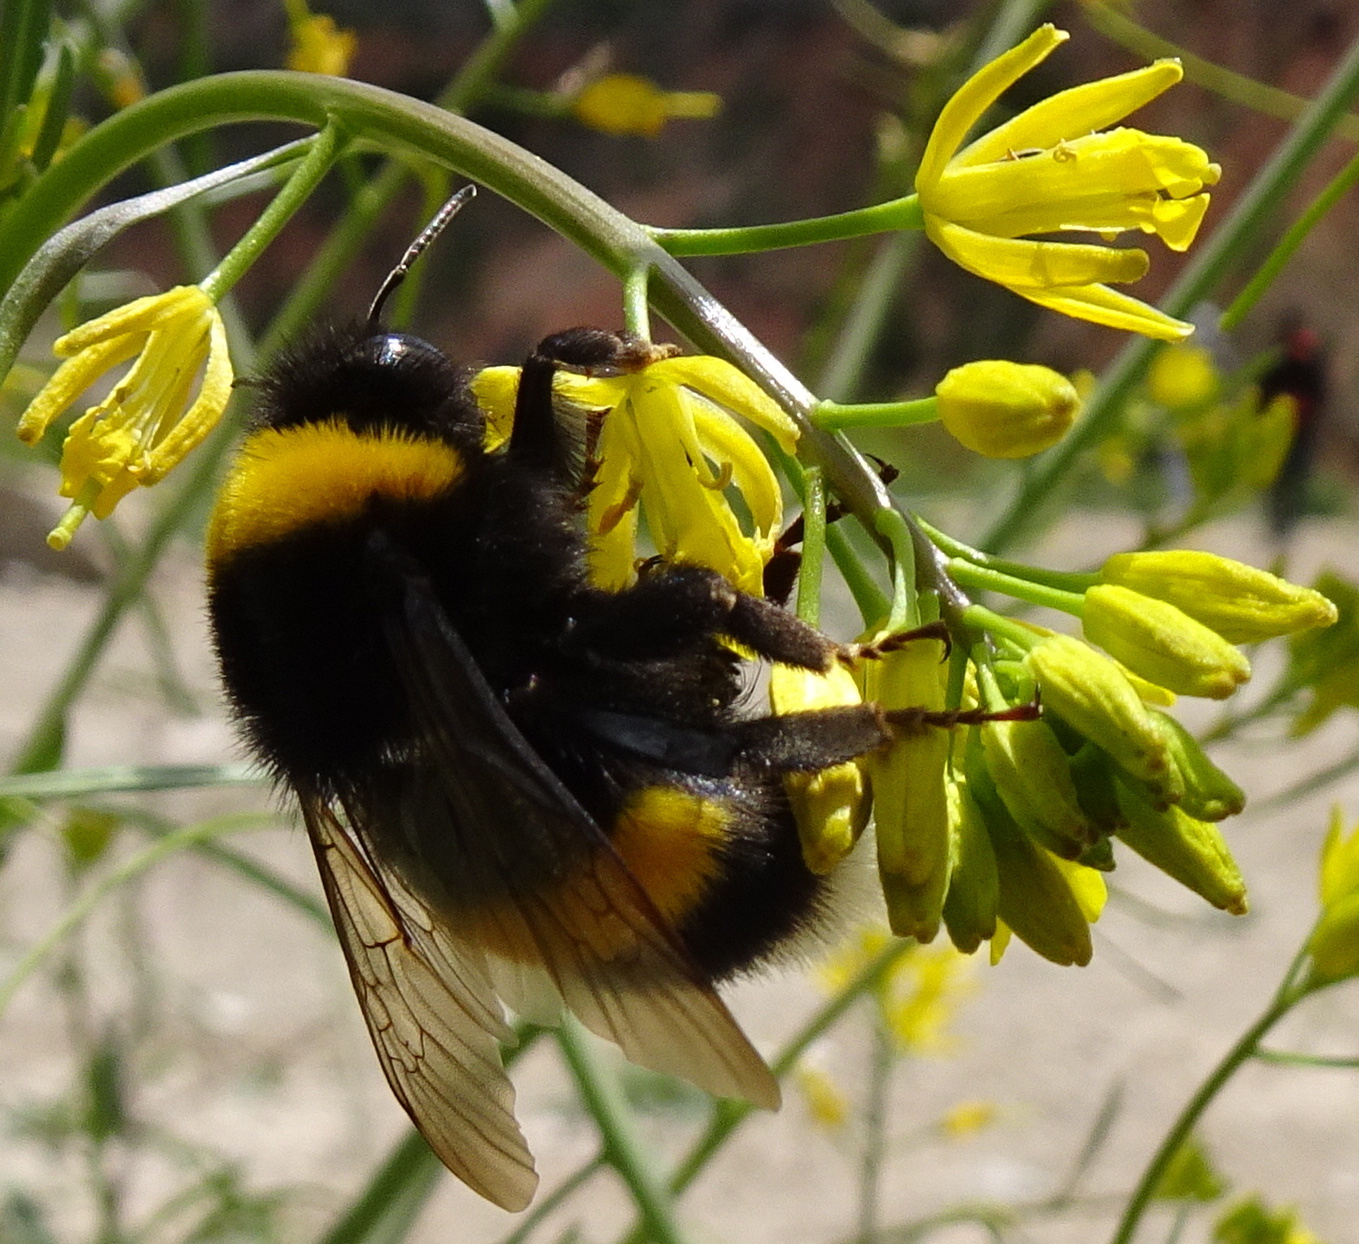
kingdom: Animalia
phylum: Arthropoda
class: Insecta
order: Hymenoptera
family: Apidae
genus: Bombus
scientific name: Bombus
